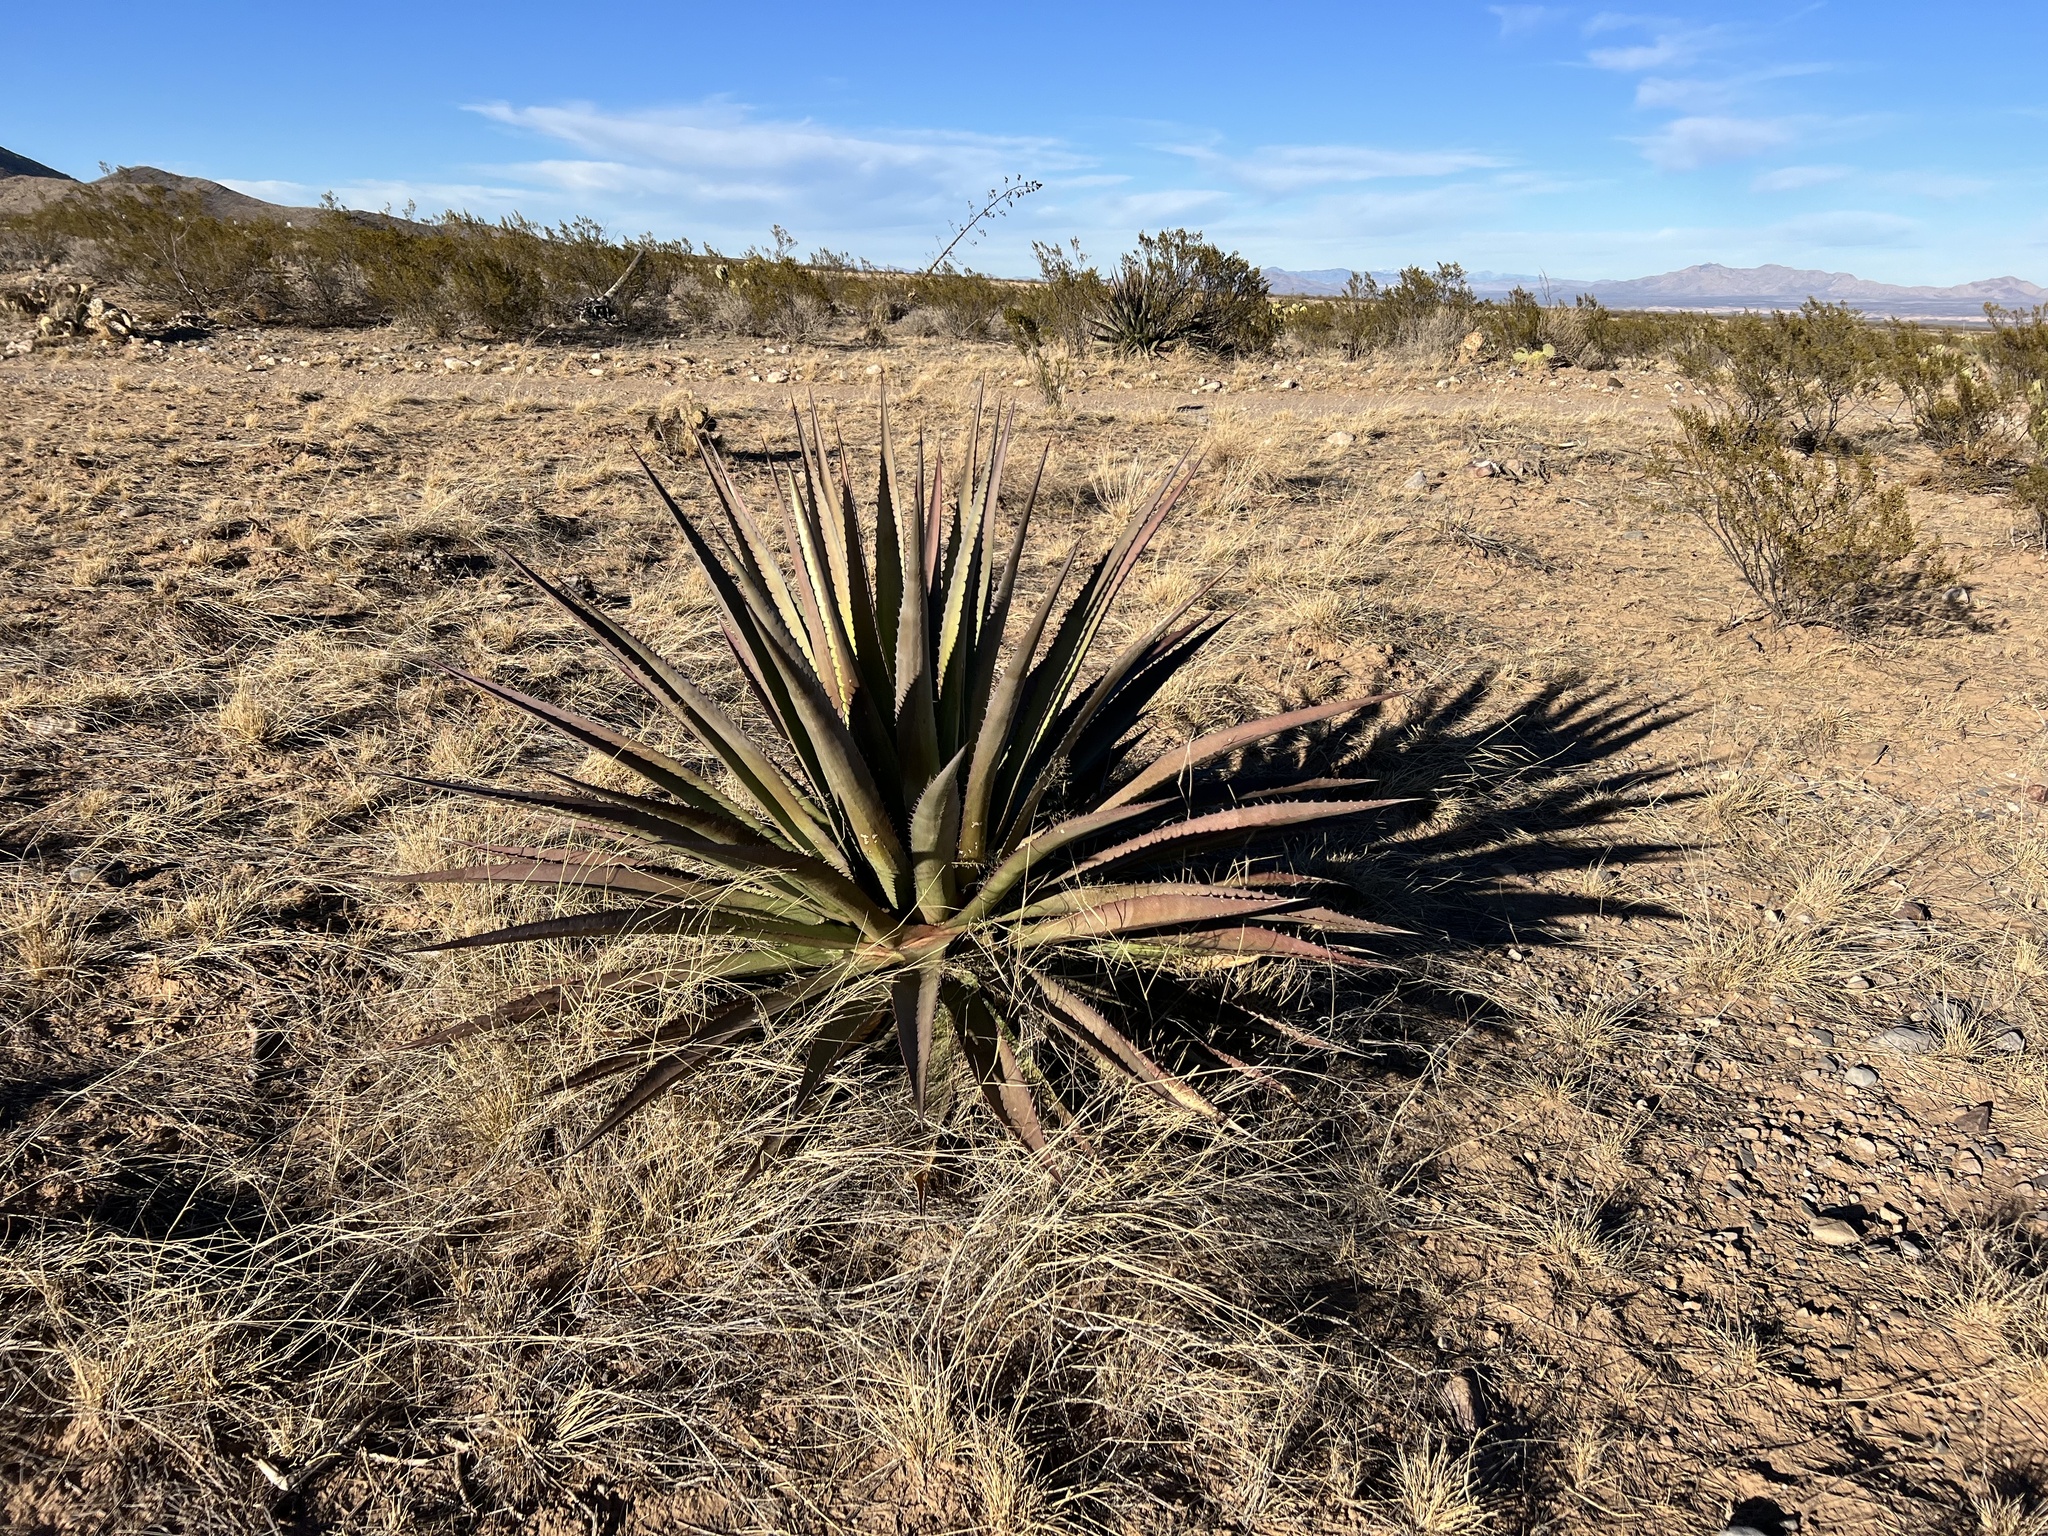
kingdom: Plantae
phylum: Tracheophyta
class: Liliopsida
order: Asparagales
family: Asparagaceae
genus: Agave
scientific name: Agave palmeri
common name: Palmer agave
